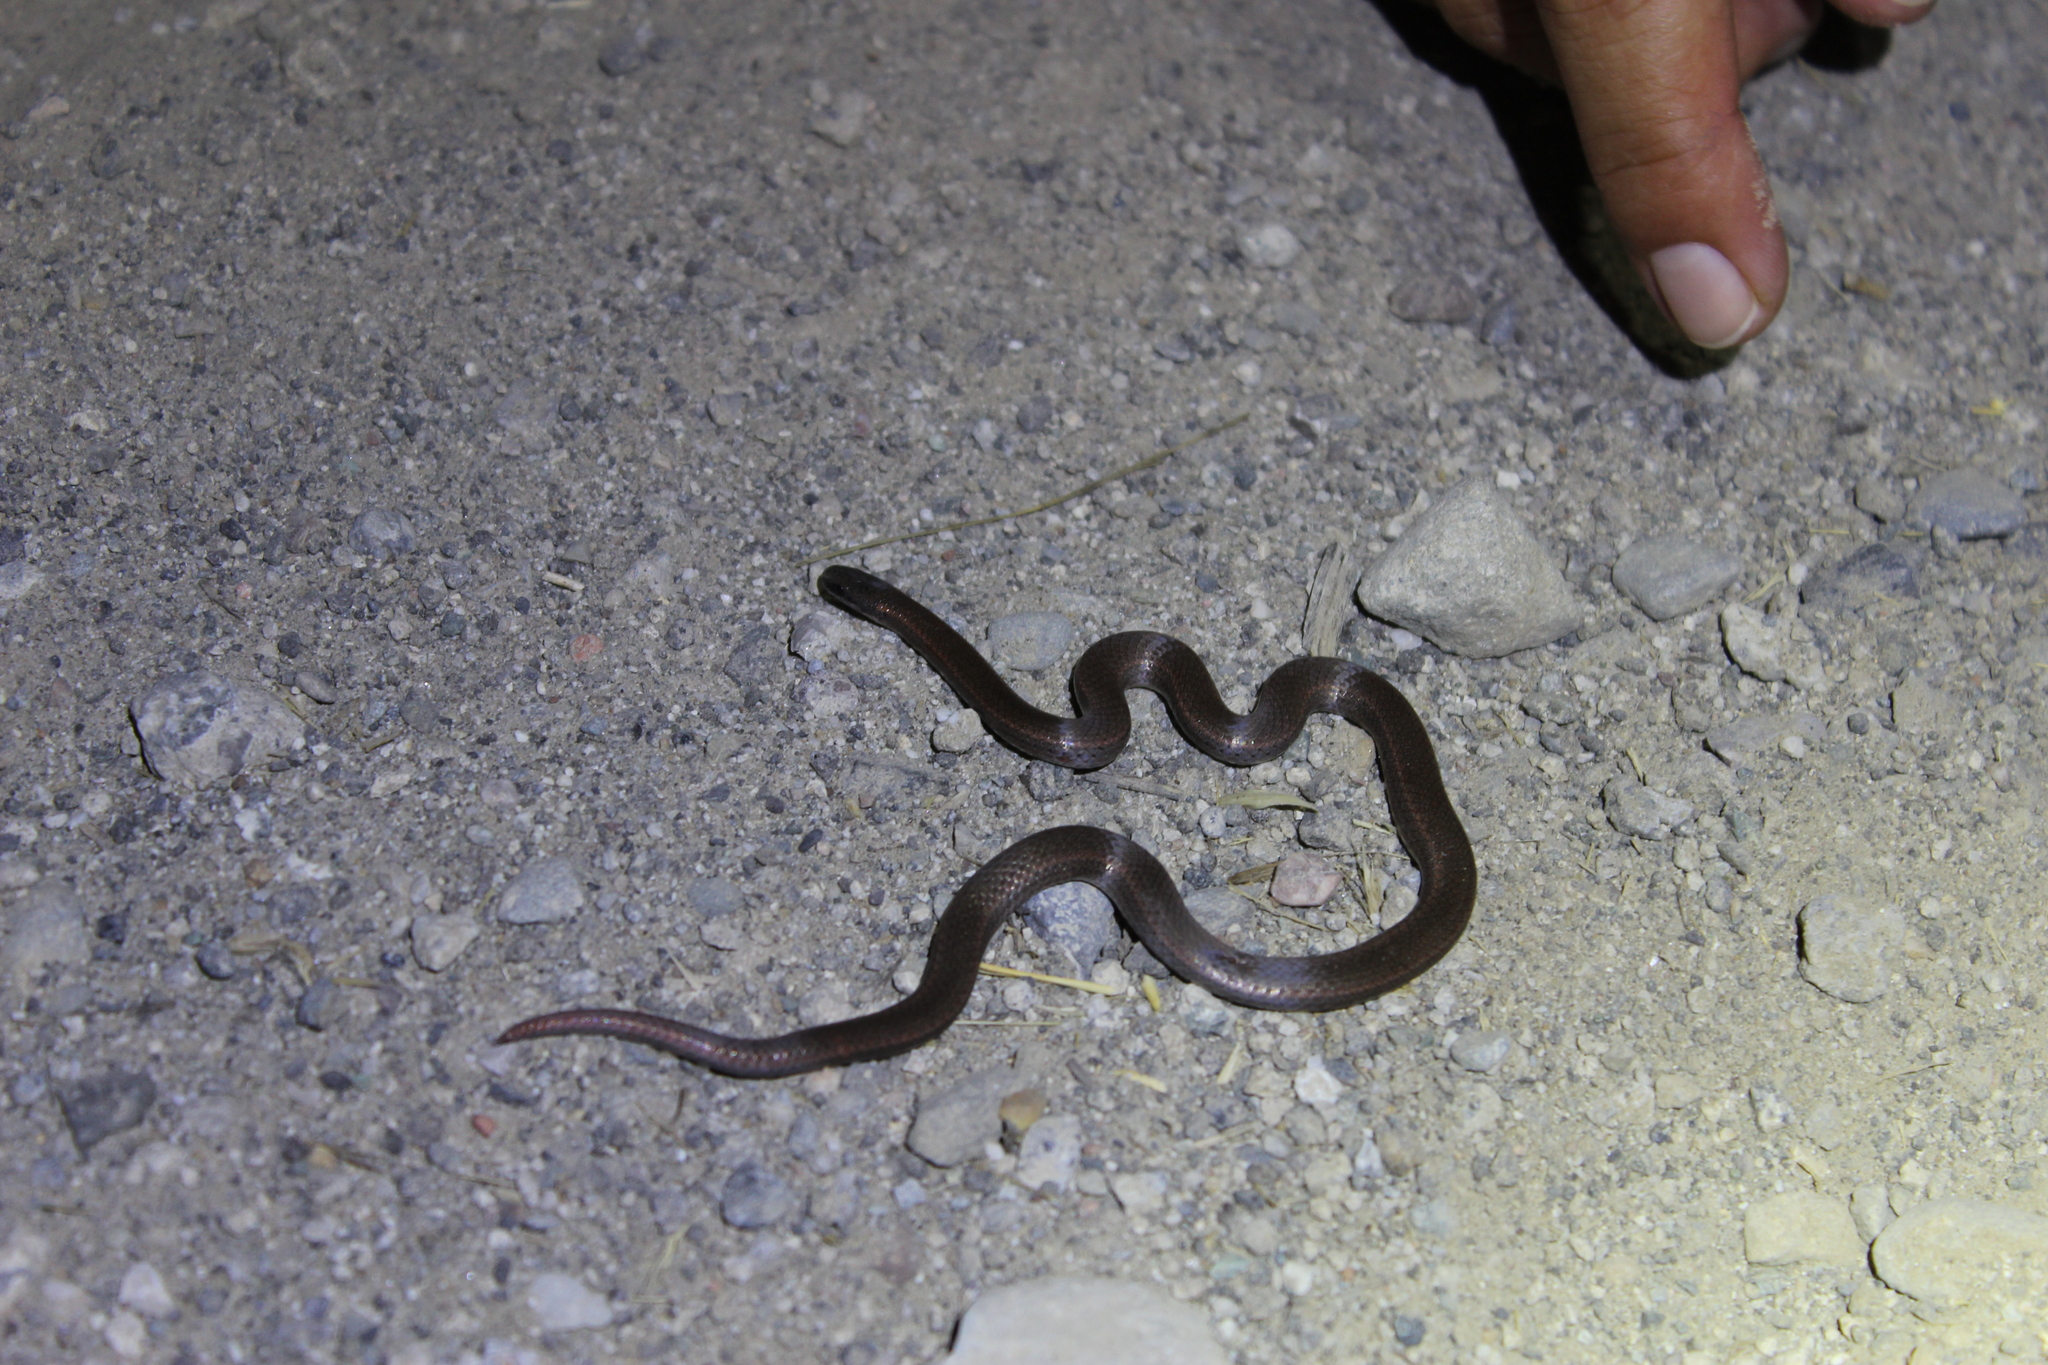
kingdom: Animalia
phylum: Chordata
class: Squamata
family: Colubridae
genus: Contia
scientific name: Contia tenuis
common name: Sharptail snake
